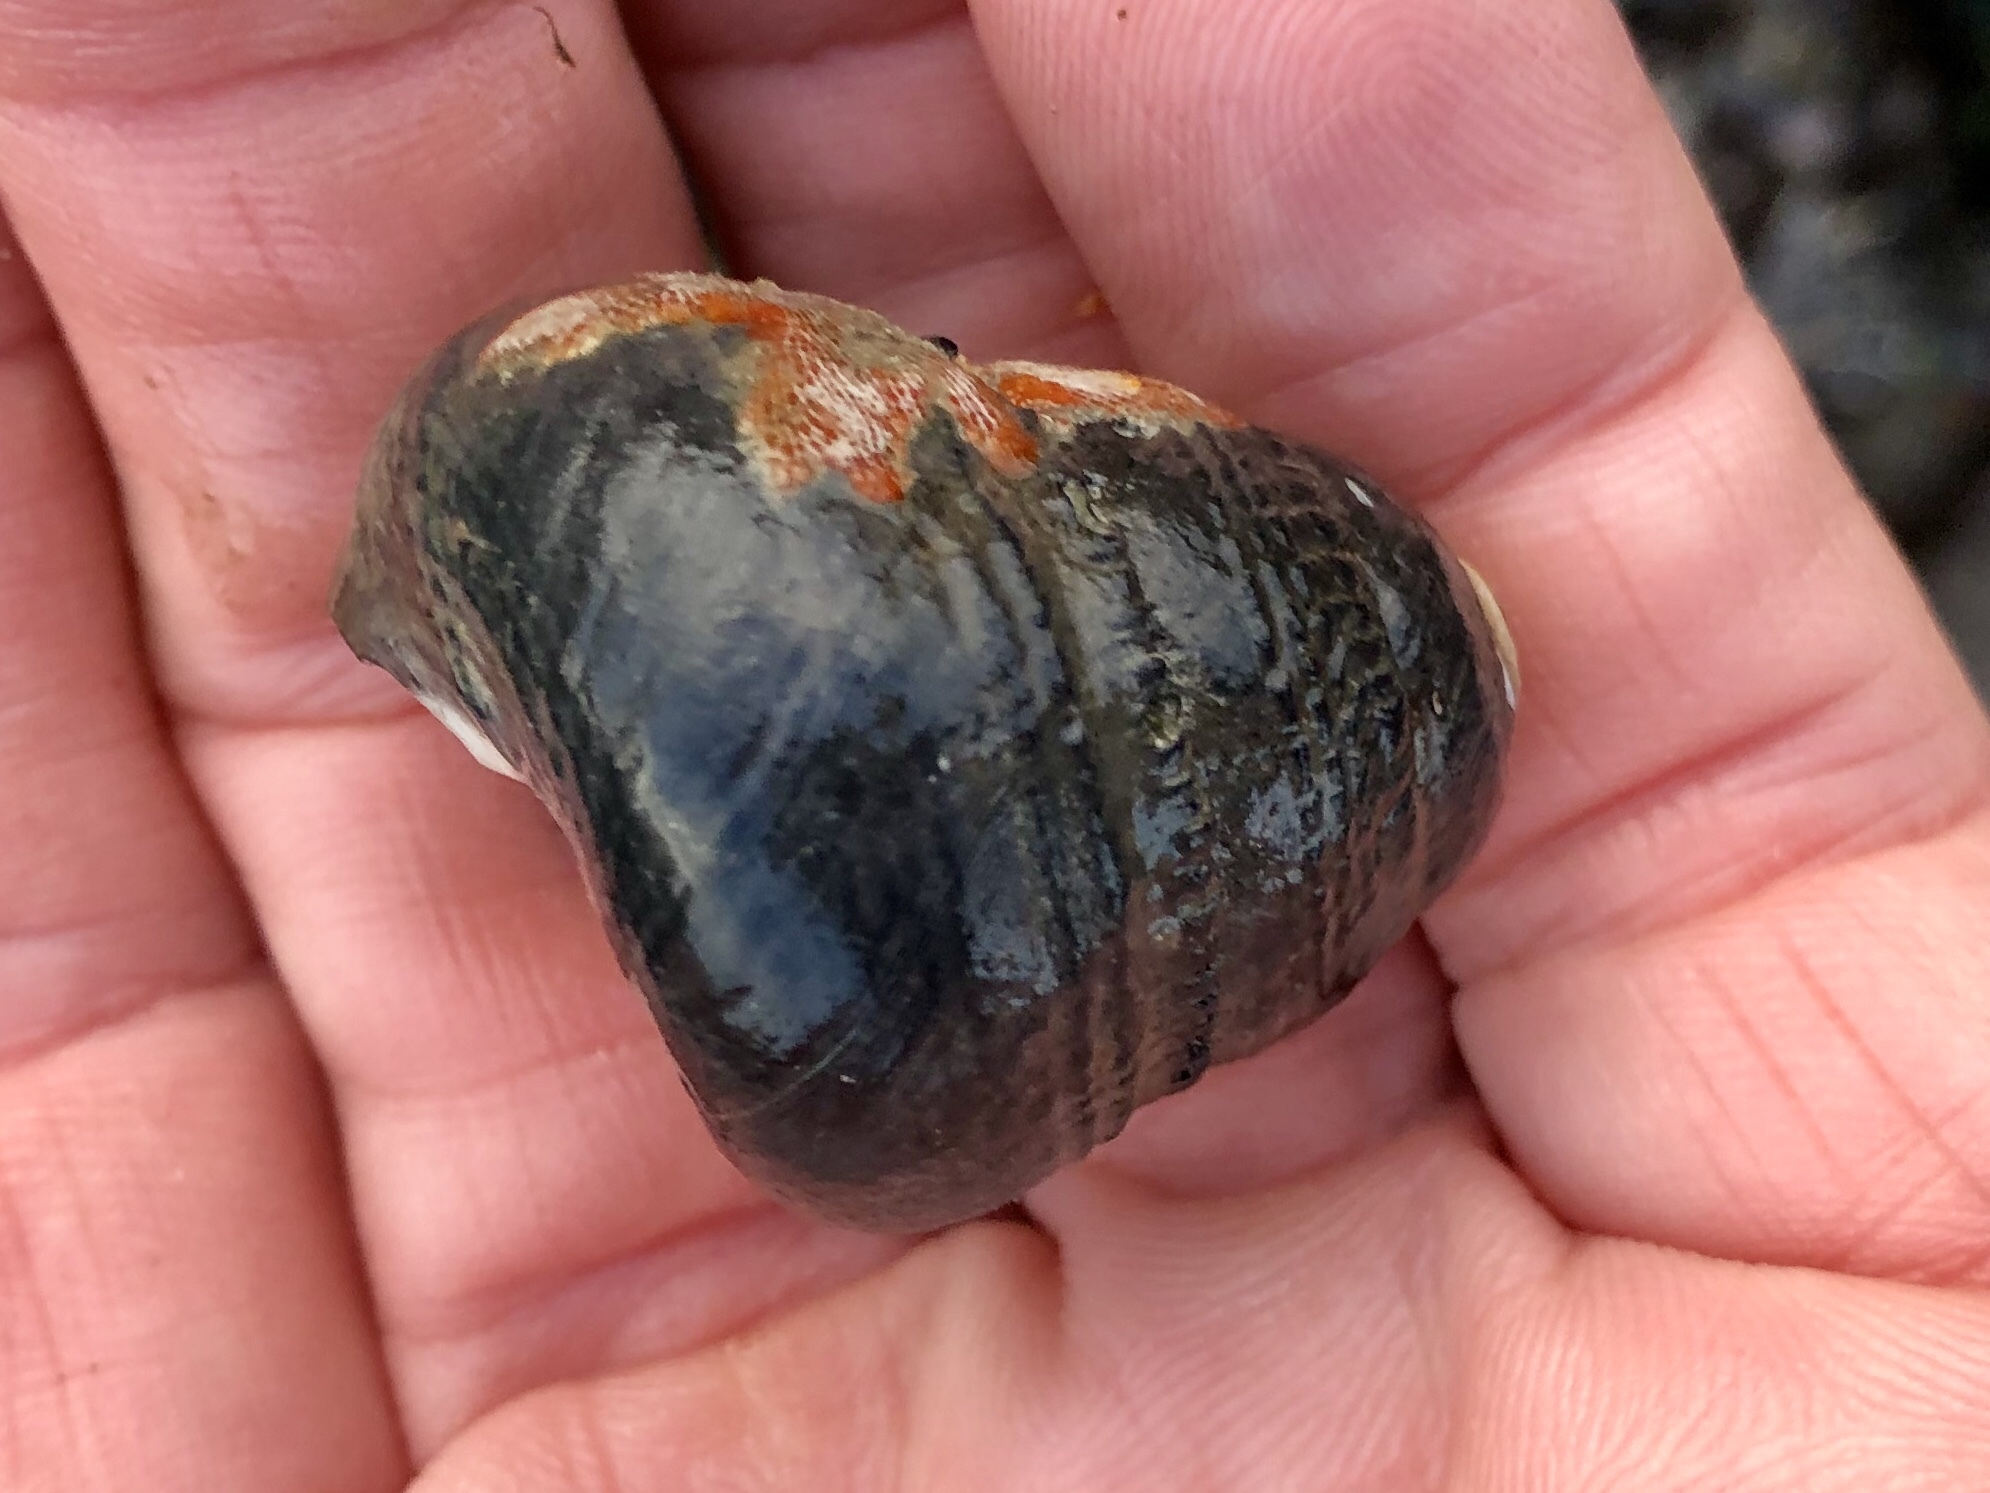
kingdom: Animalia
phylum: Mollusca
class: Gastropoda
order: Trochida
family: Tegulidae
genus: Tegula
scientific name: Tegula funebralis
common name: Black tegula
